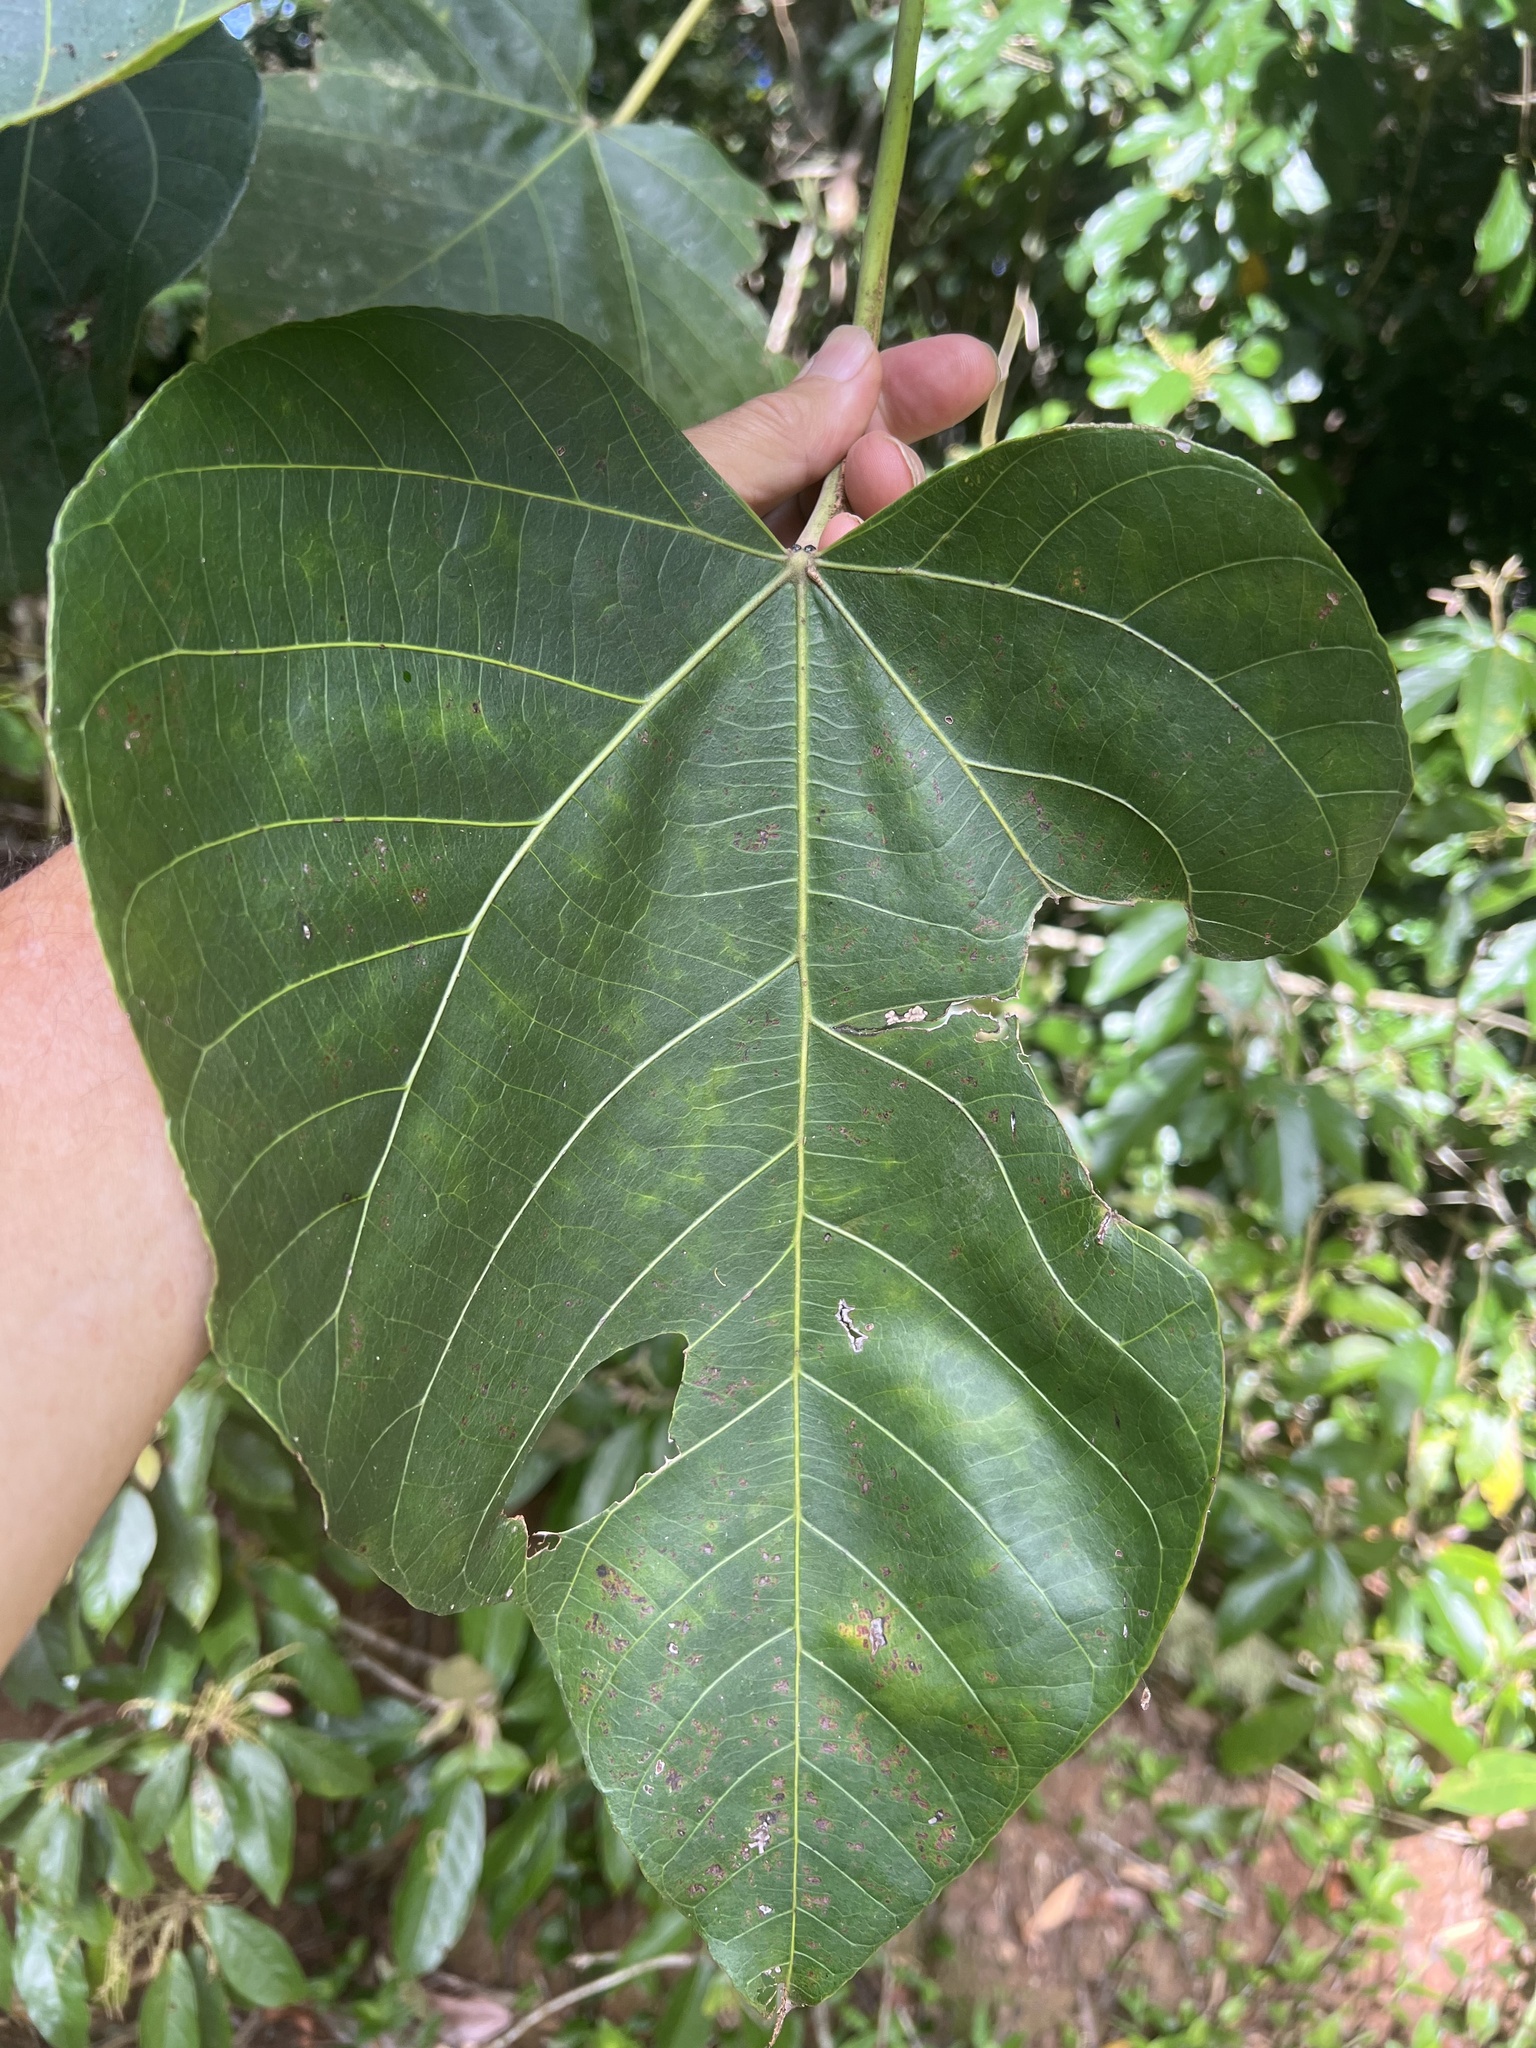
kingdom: Plantae
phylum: Tracheophyta
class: Magnoliopsida
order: Malpighiales
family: Euphorbiaceae
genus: Aleurites
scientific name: Aleurites rockinghamensis
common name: Candelnut
